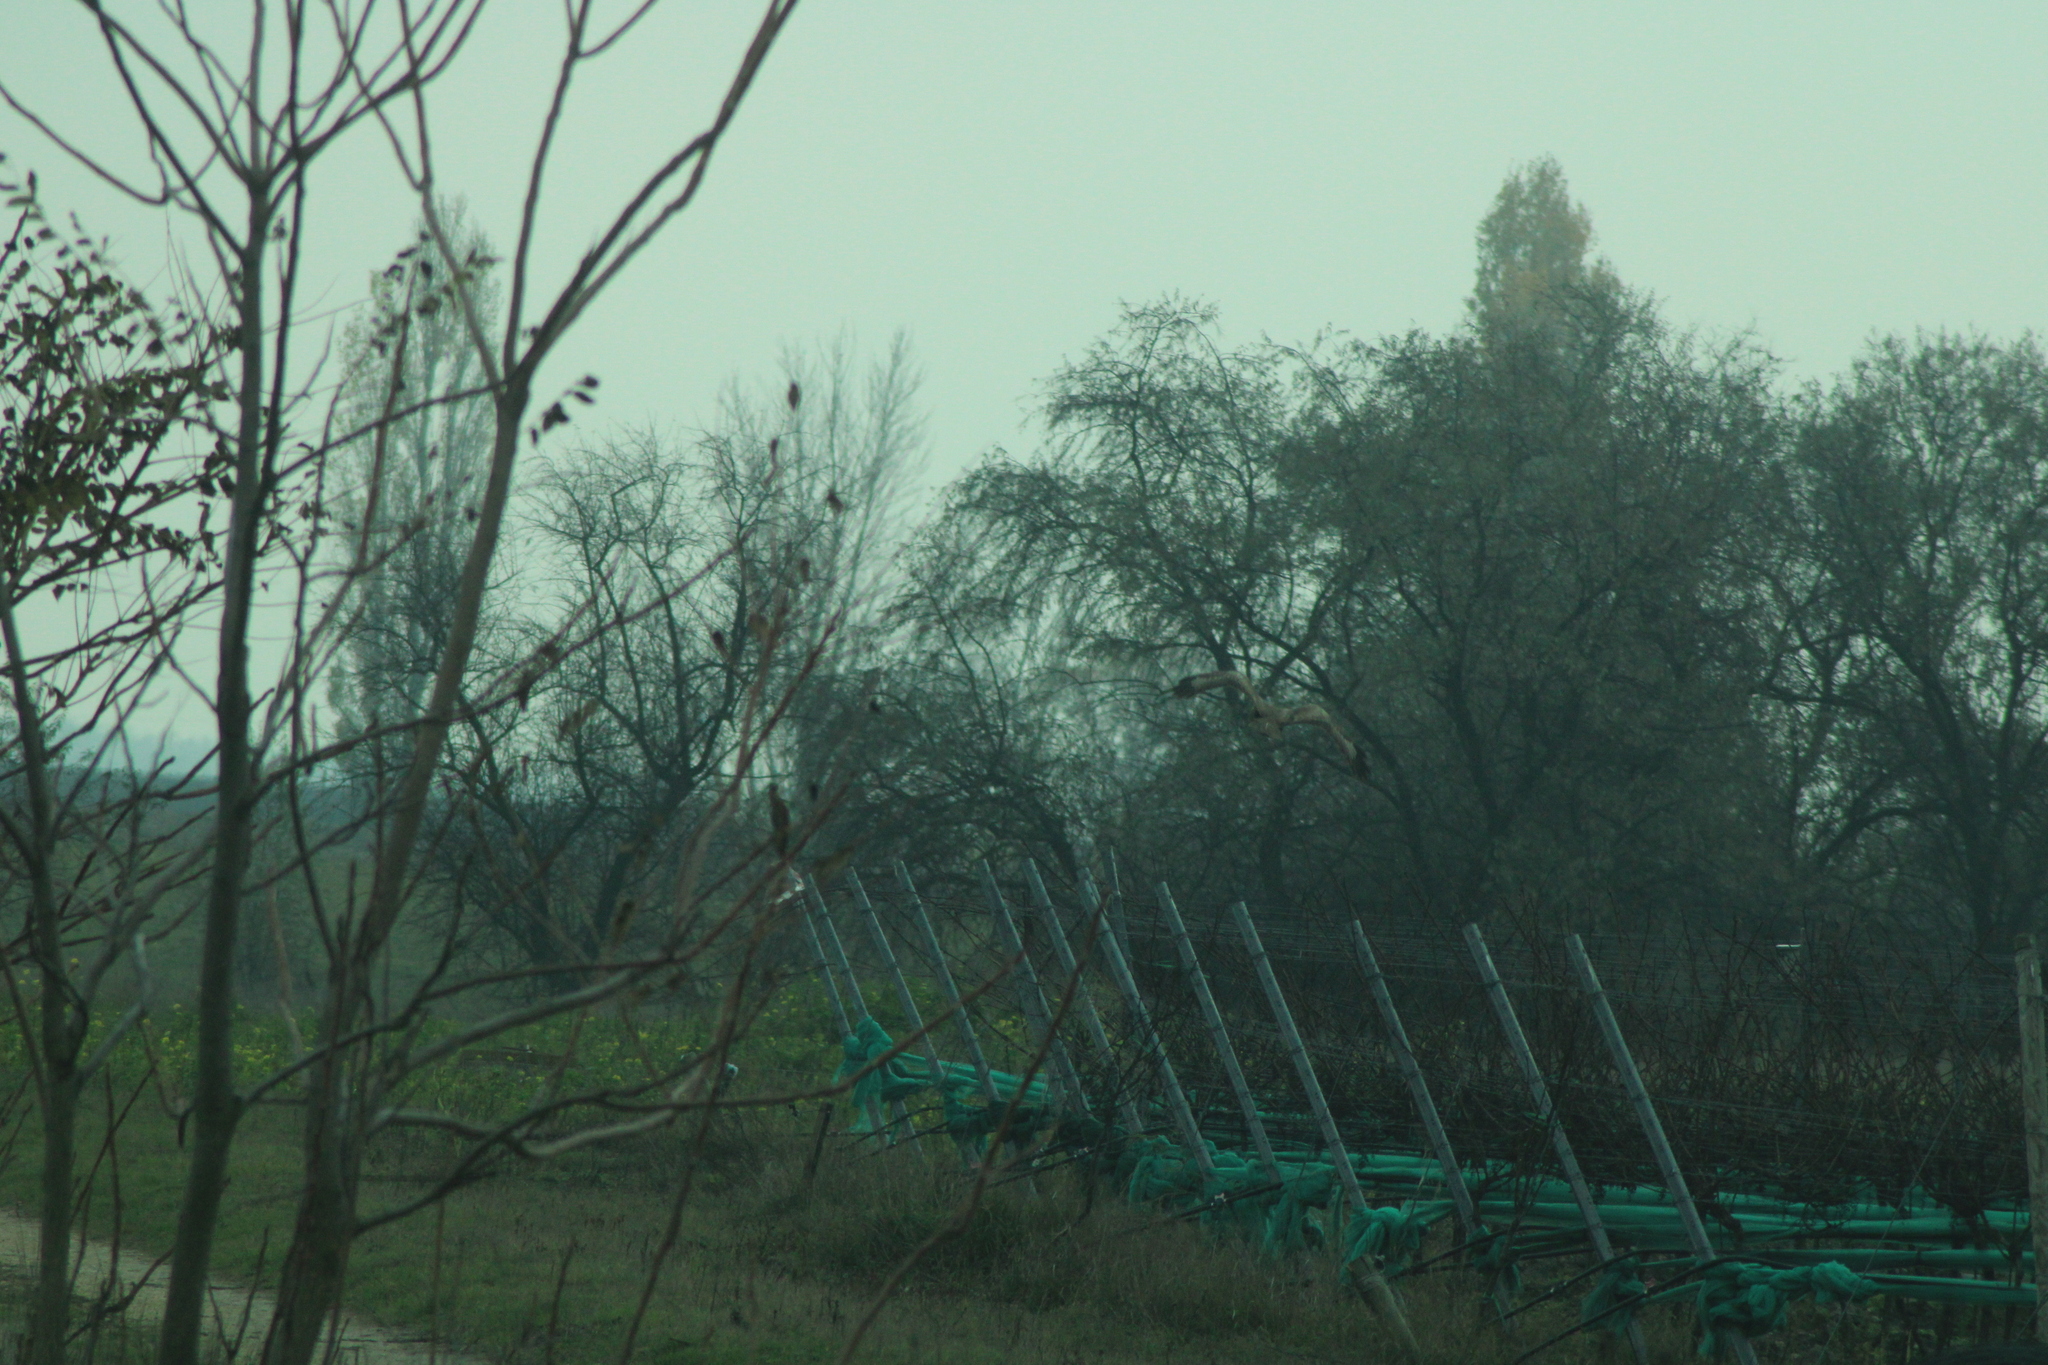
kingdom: Animalia
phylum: Chordata
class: Aves
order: Accipitriformes
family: Accipitridae
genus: Buteo
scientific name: Buteo buteo
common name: Common buzzard
